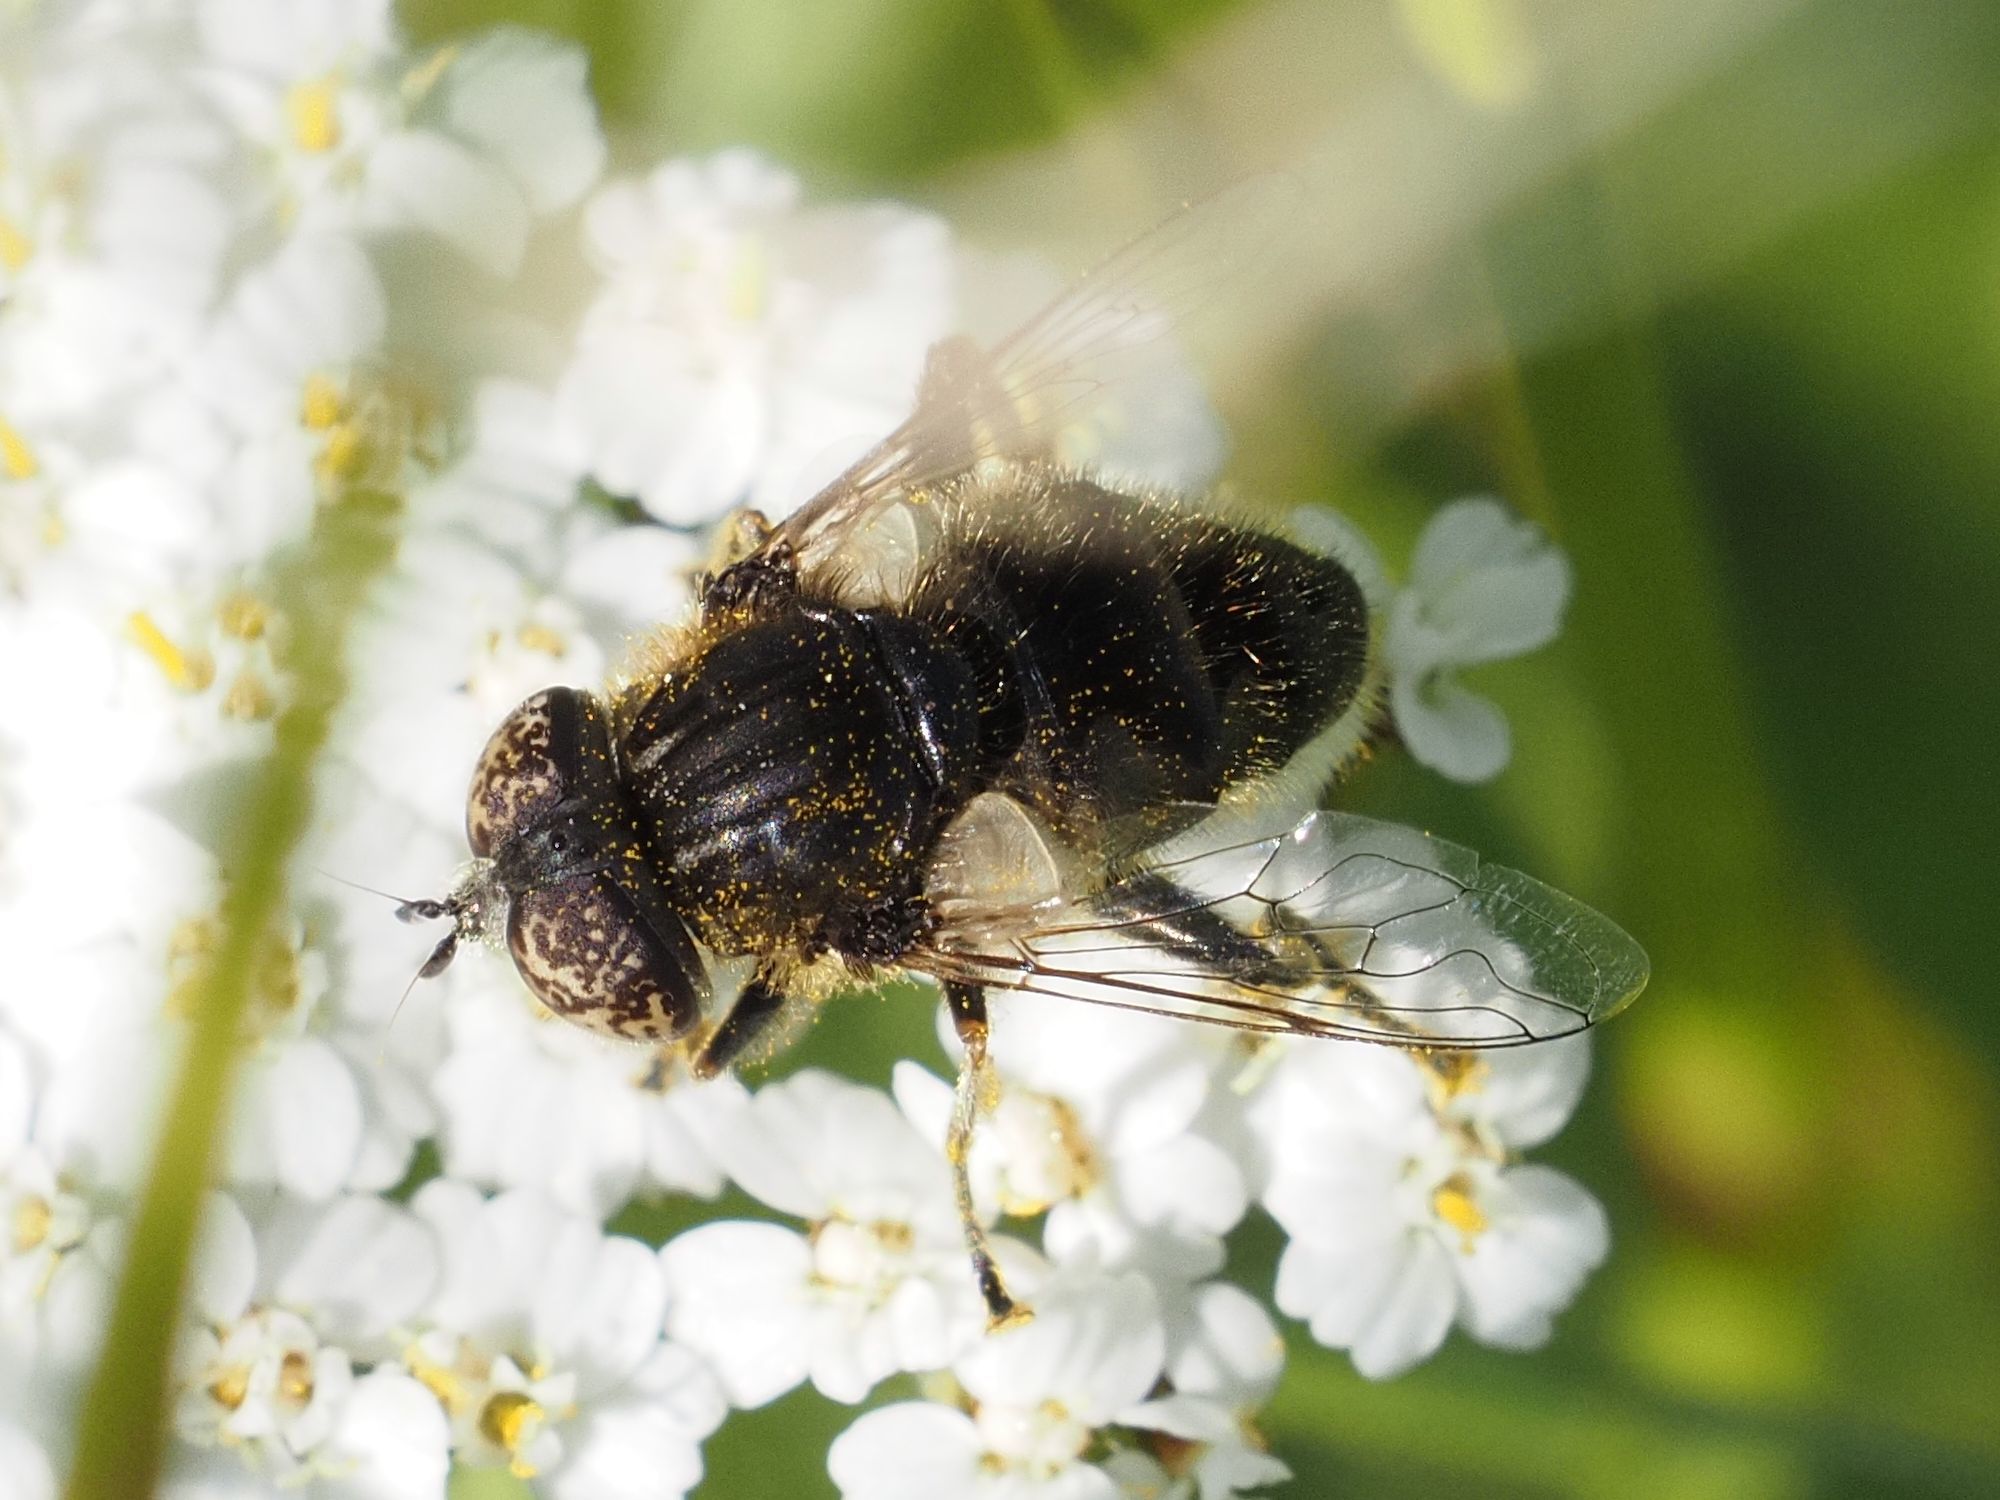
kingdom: Animalia
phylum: Arthropoda
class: Insecta
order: Diptera
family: Syrphidae
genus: Eristalinus
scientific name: Eristalinus sepulchralis
